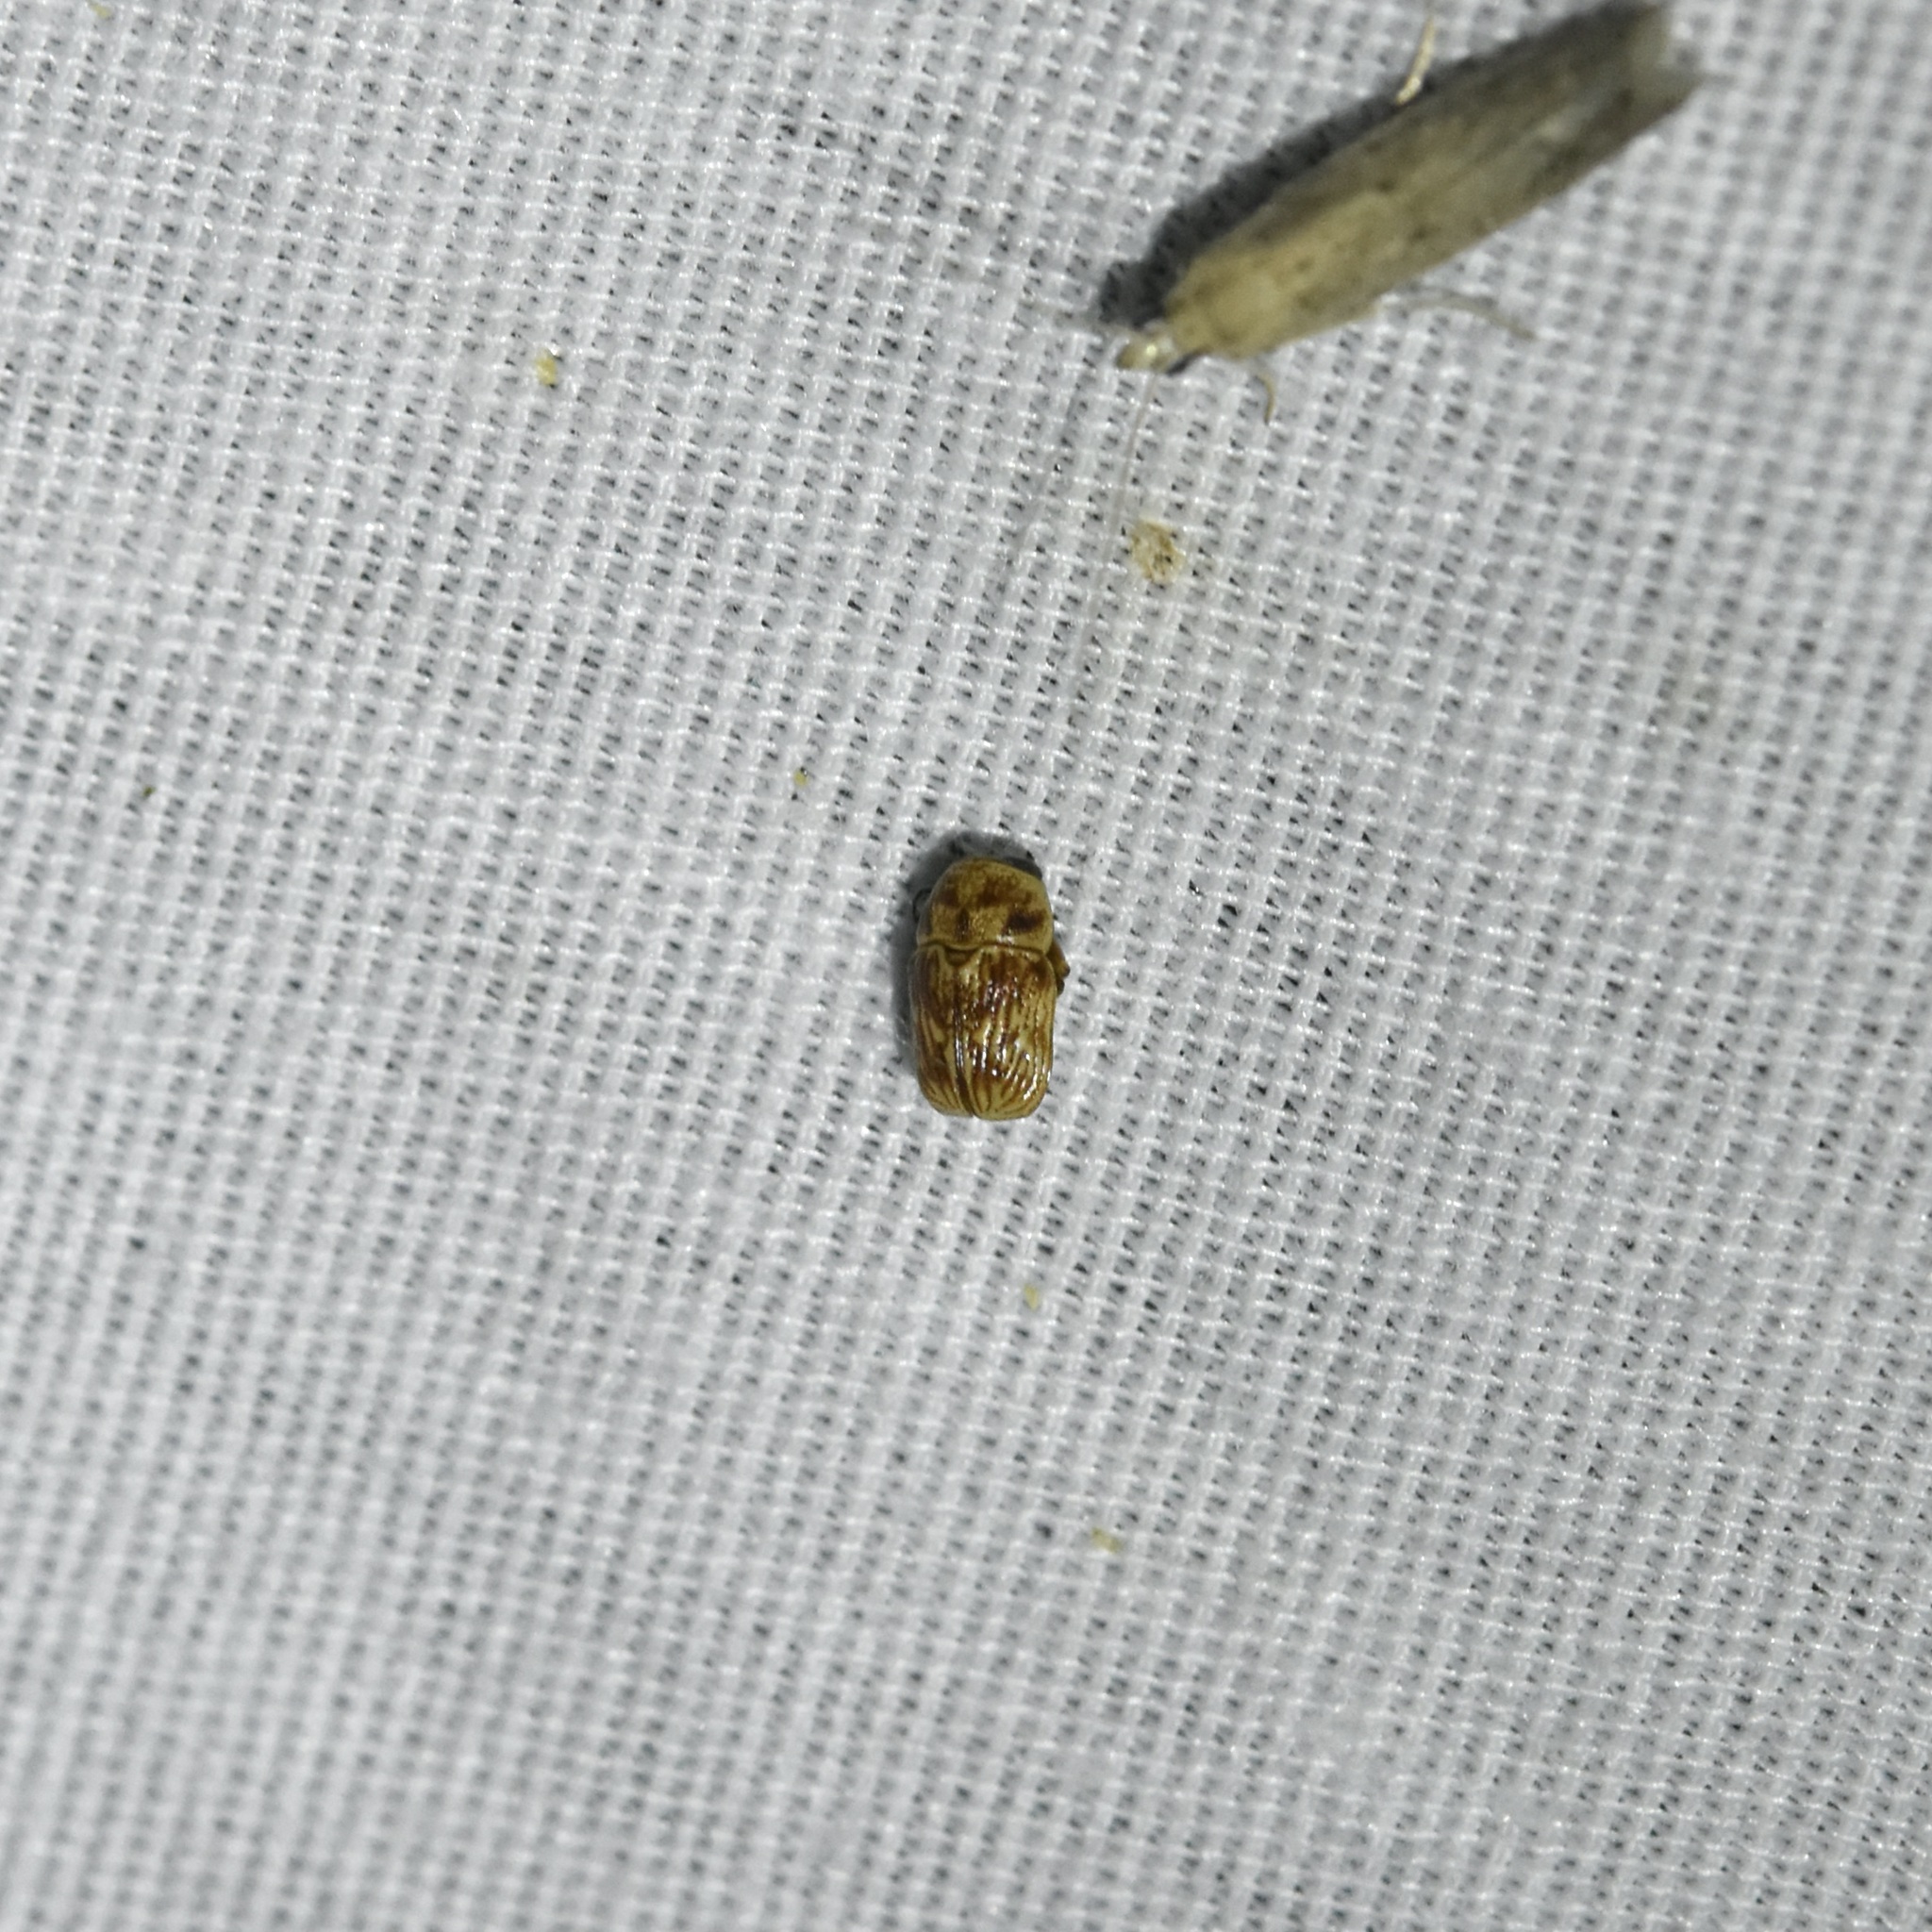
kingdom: Animalia
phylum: Arthropoda
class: Insecta
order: Coleoptera
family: Chrysomelidae
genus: Pachybrachis
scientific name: Pachybrachis
